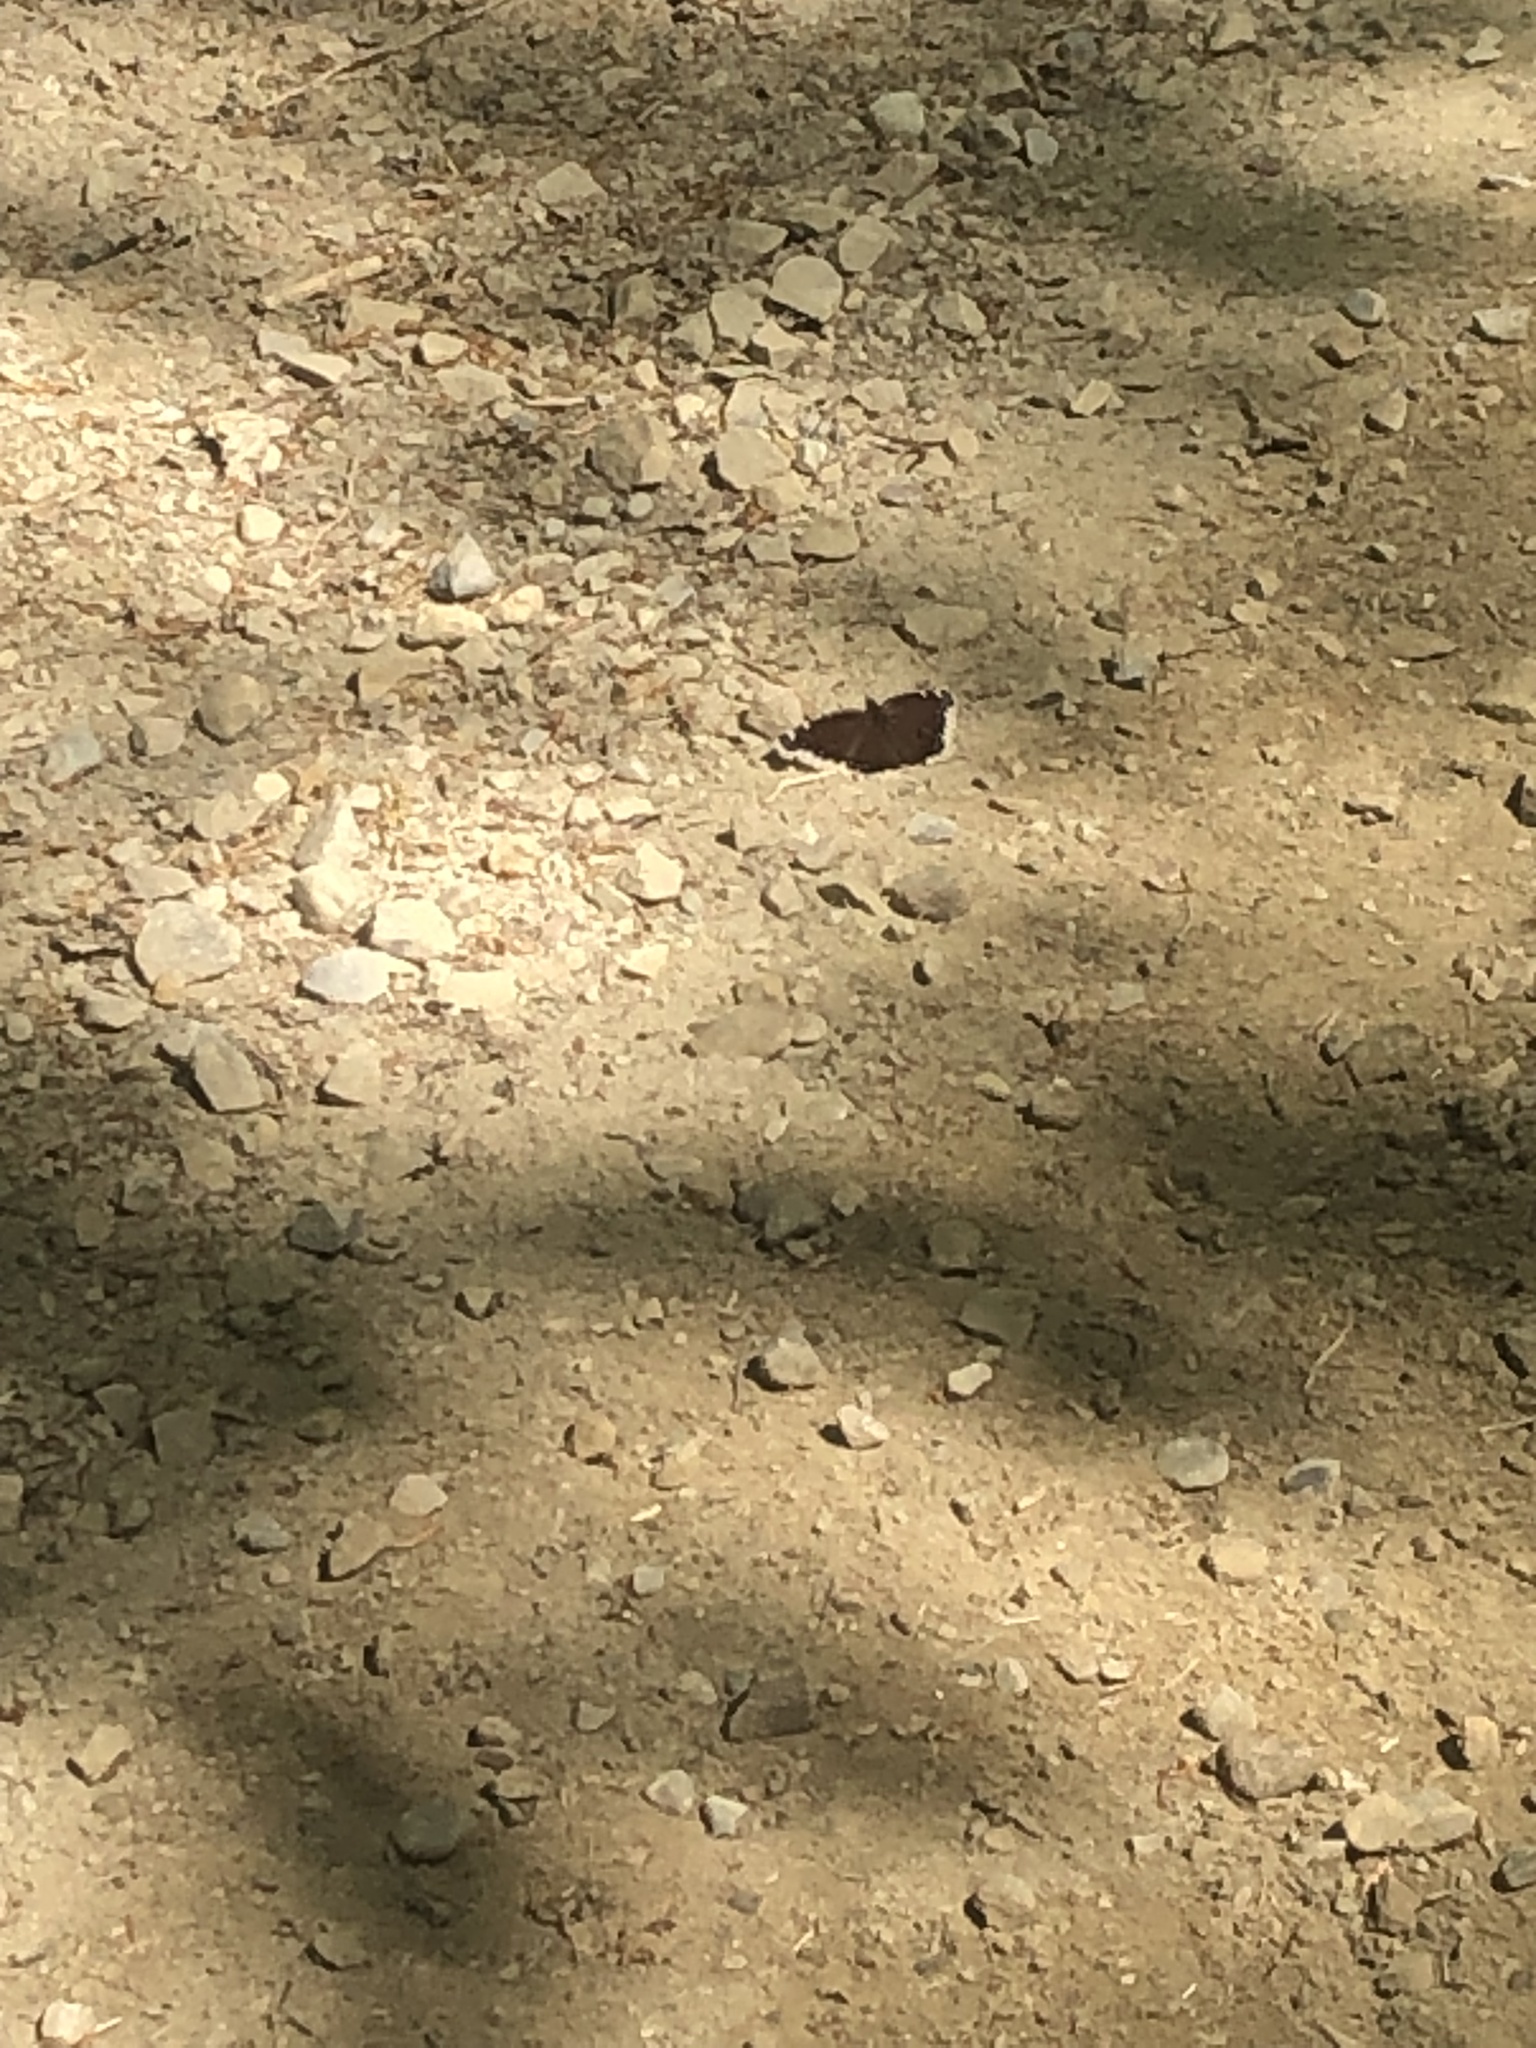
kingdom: Animalia
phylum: Arthropoda
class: Insecta
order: Lepidoptera
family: Nymphalidae
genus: Nymphalis
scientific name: Nymphalis antiopa
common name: Camberwell beauty
